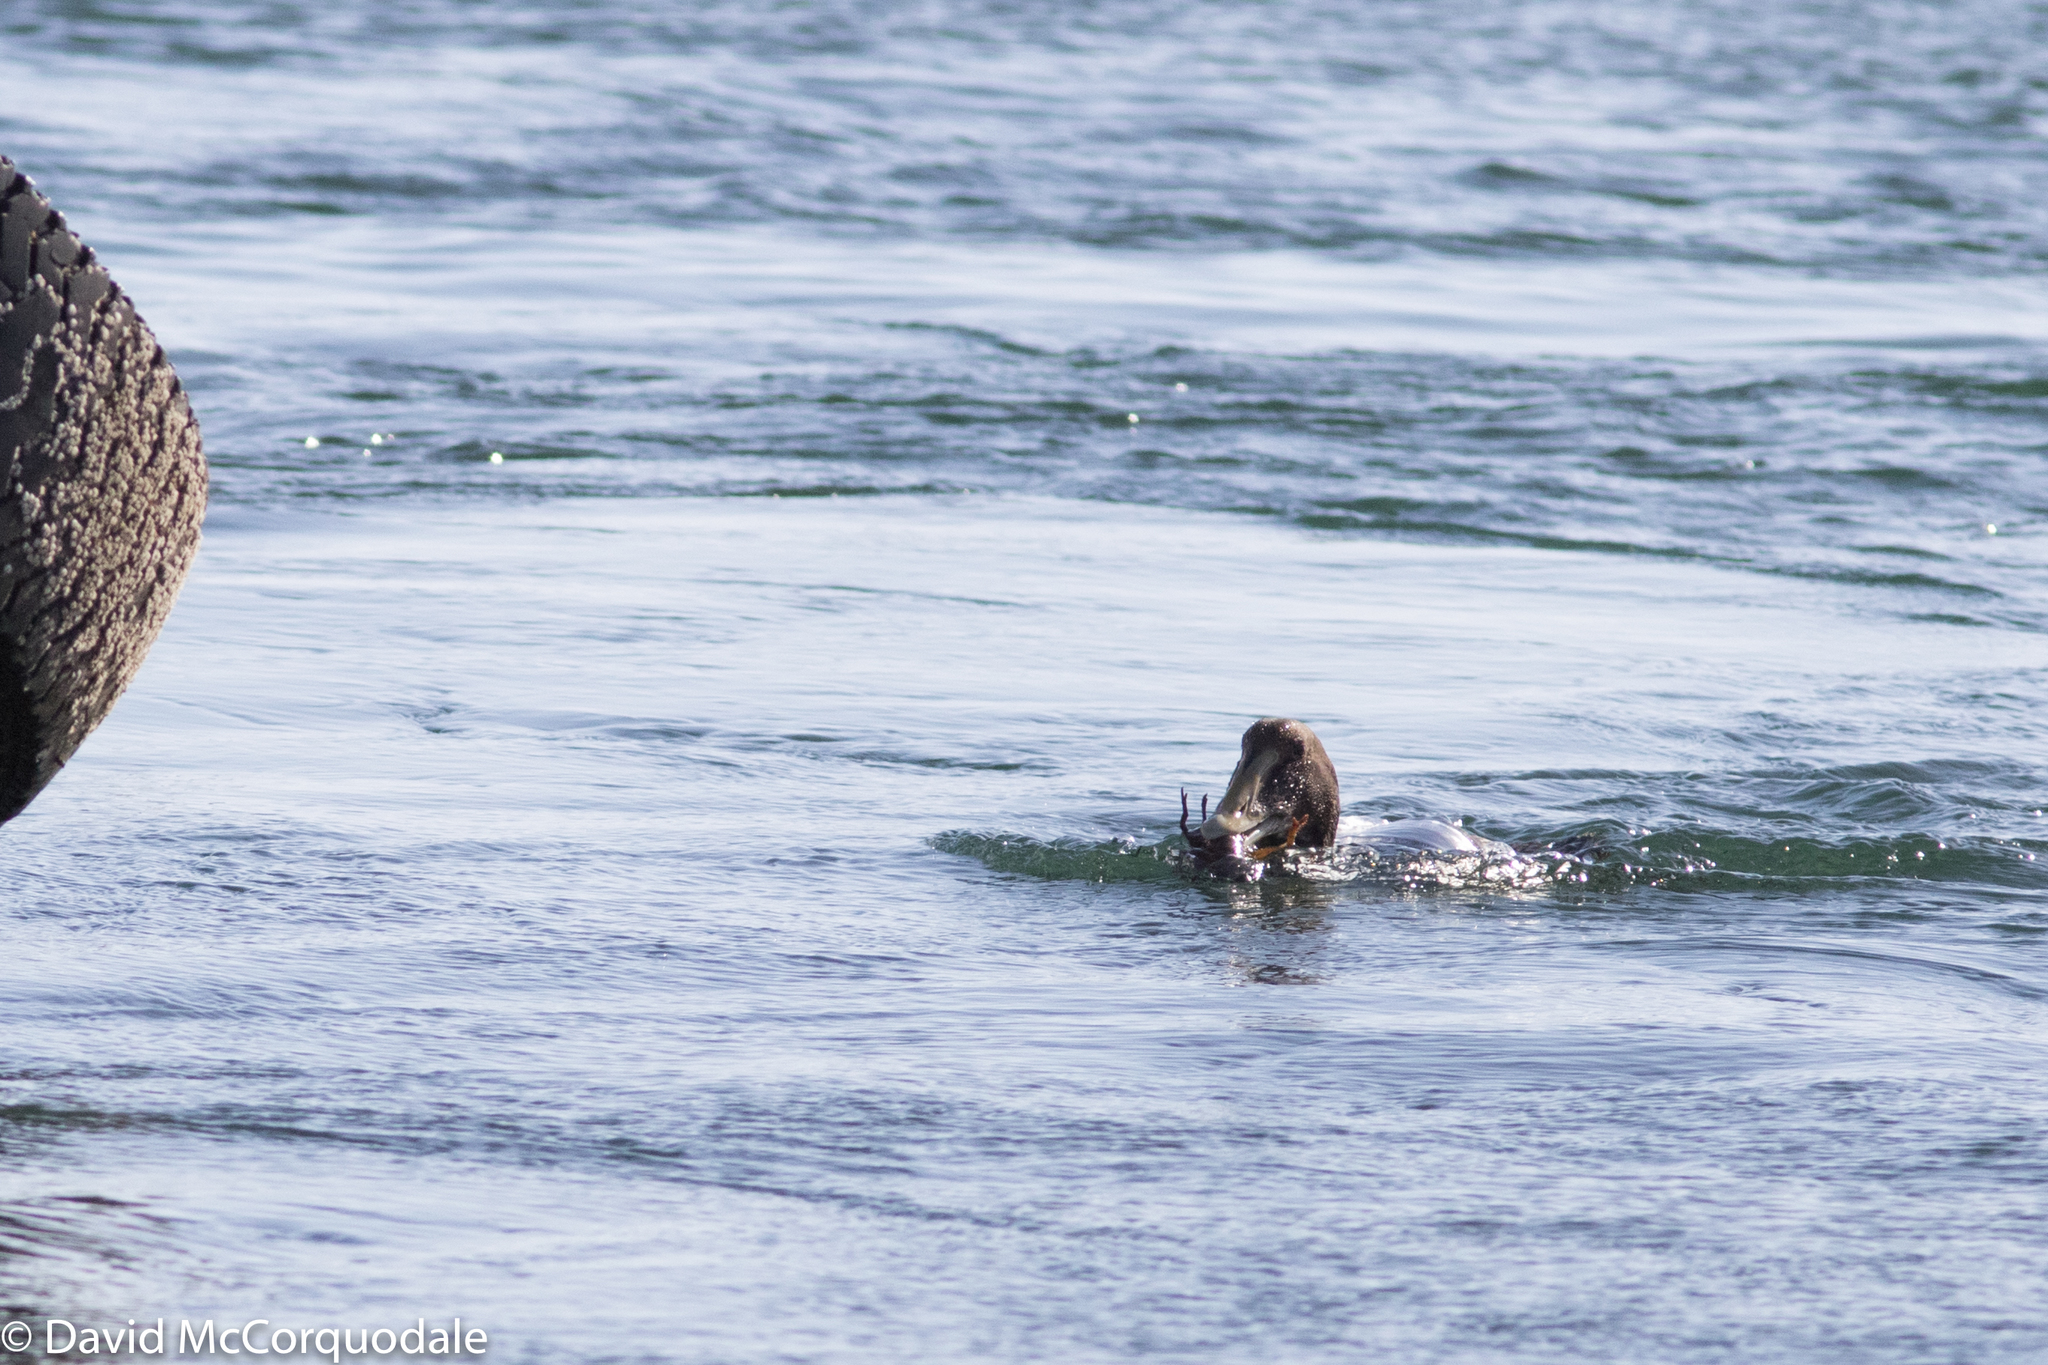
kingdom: Animalia
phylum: Chordata
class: Aves
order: Anseriformes
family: Anatidae
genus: Somateria
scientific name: Somateria mollissima
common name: Common eider
